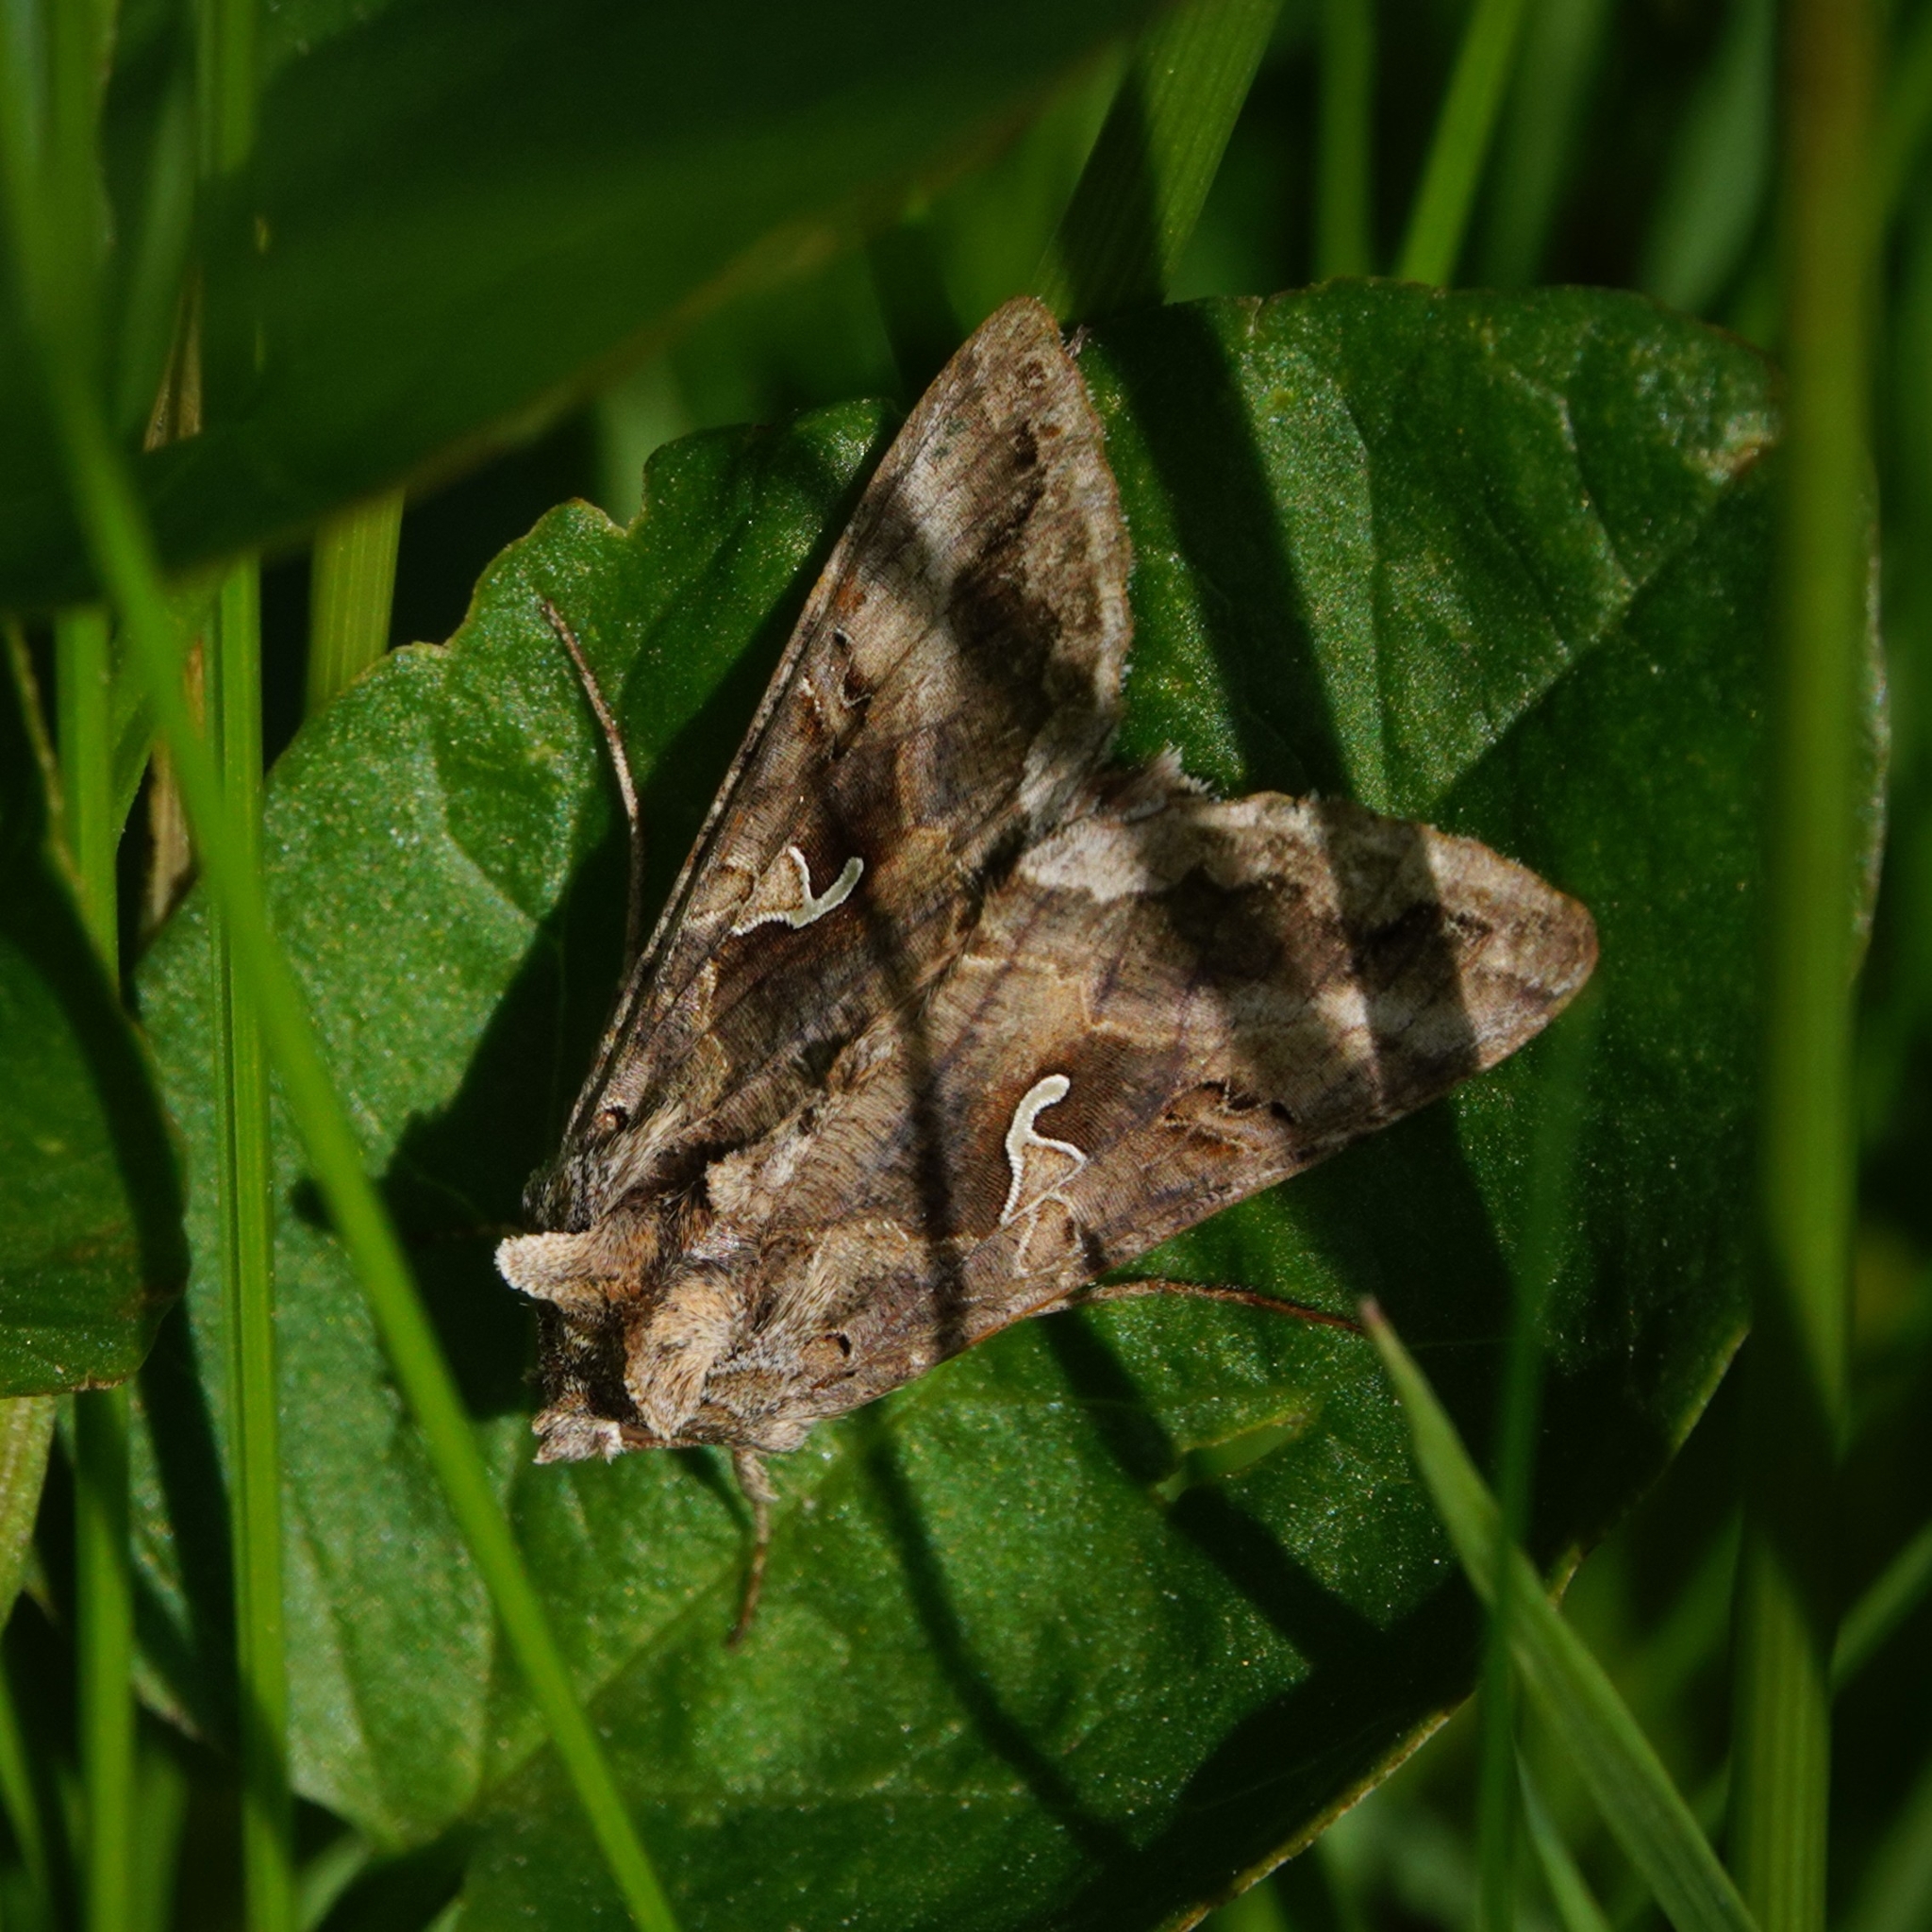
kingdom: Animalia
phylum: Arthropoda
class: Insecta
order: Lepidoptera
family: Noctuidae
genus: Autographa
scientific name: Autographa gamma
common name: Silver y
